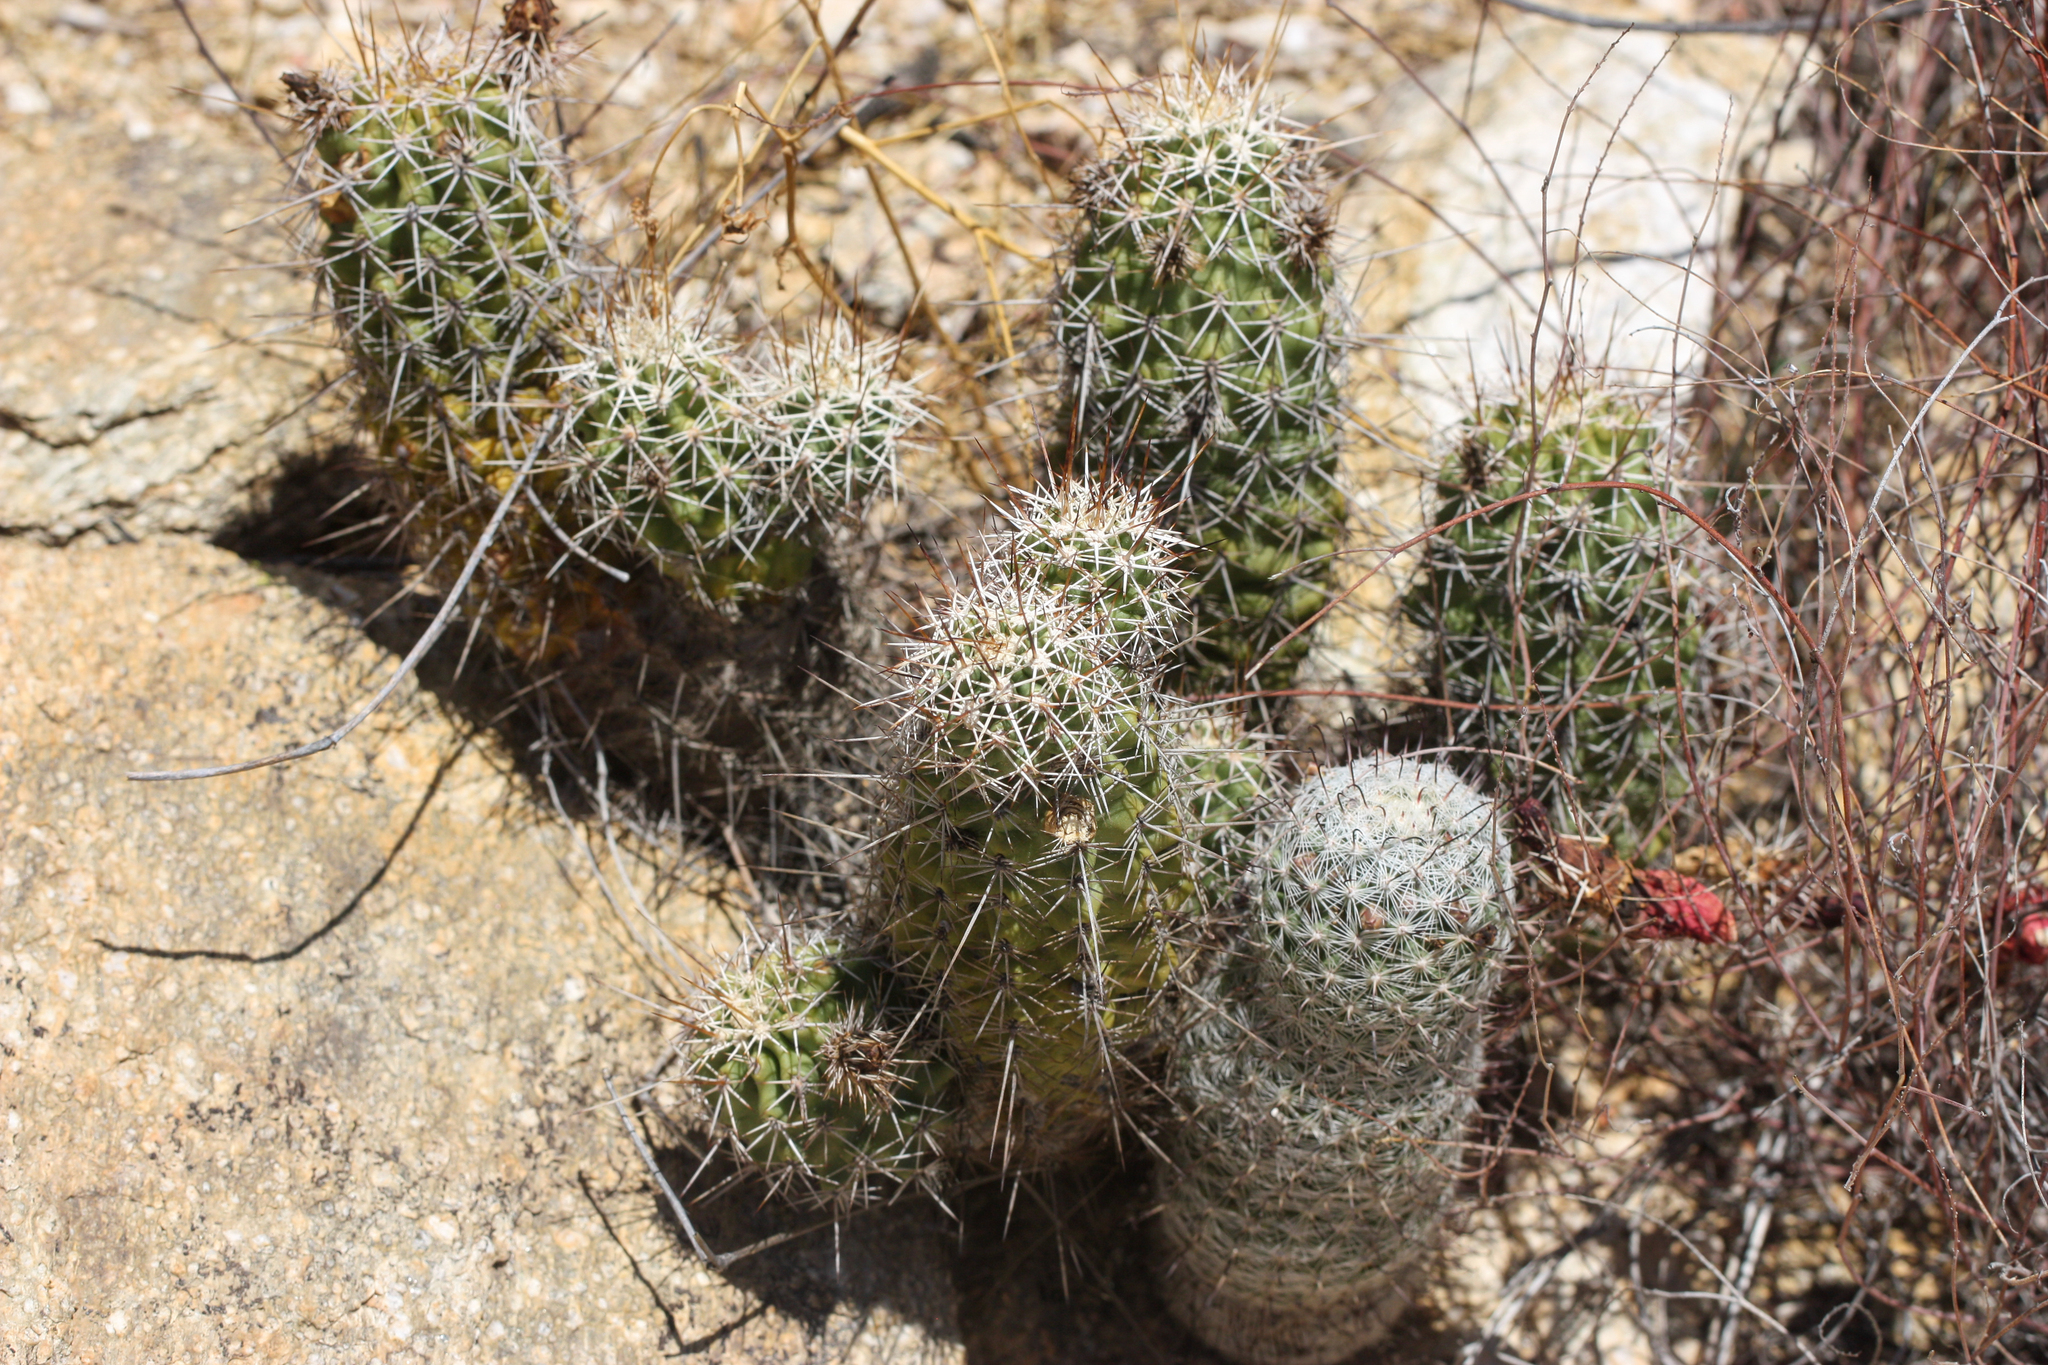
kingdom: Plantae
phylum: Tracheophyta
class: Magnoliopsida
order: Caryophyllales
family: Cactaceae
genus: Echinocereus
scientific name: Echinocereus fasciculatus
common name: Bundle hedgehog
